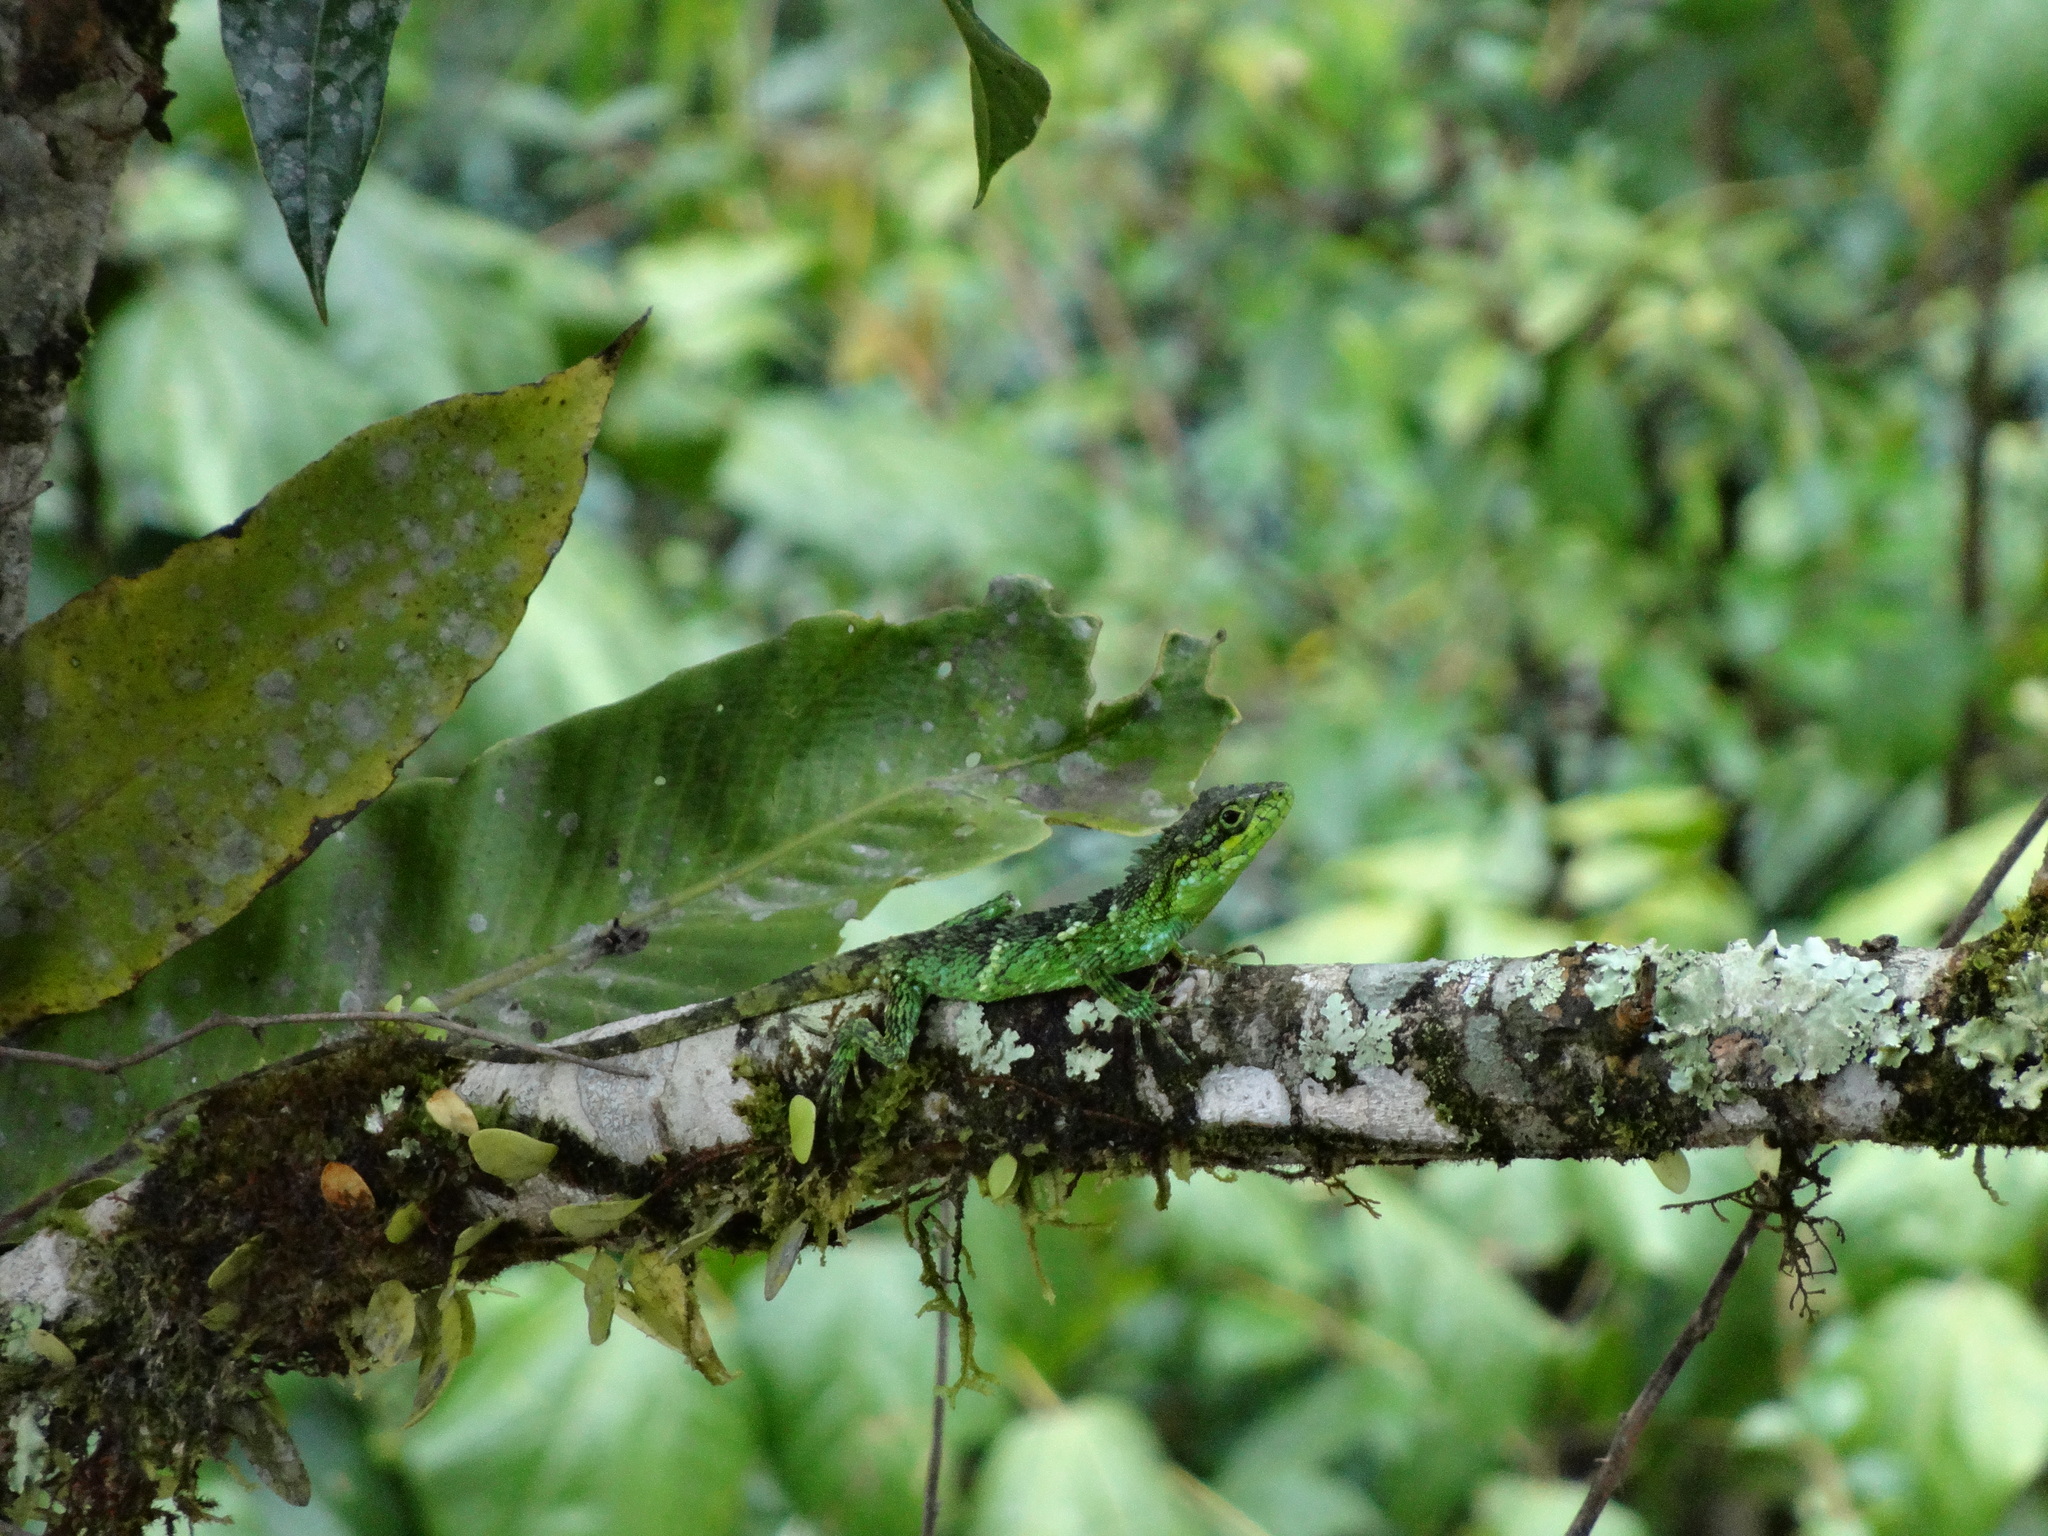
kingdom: Animalia
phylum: Chordata
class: Squamata
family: Agamidae
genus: Pseudocalotes
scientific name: Pseudocalotes bapoensis
